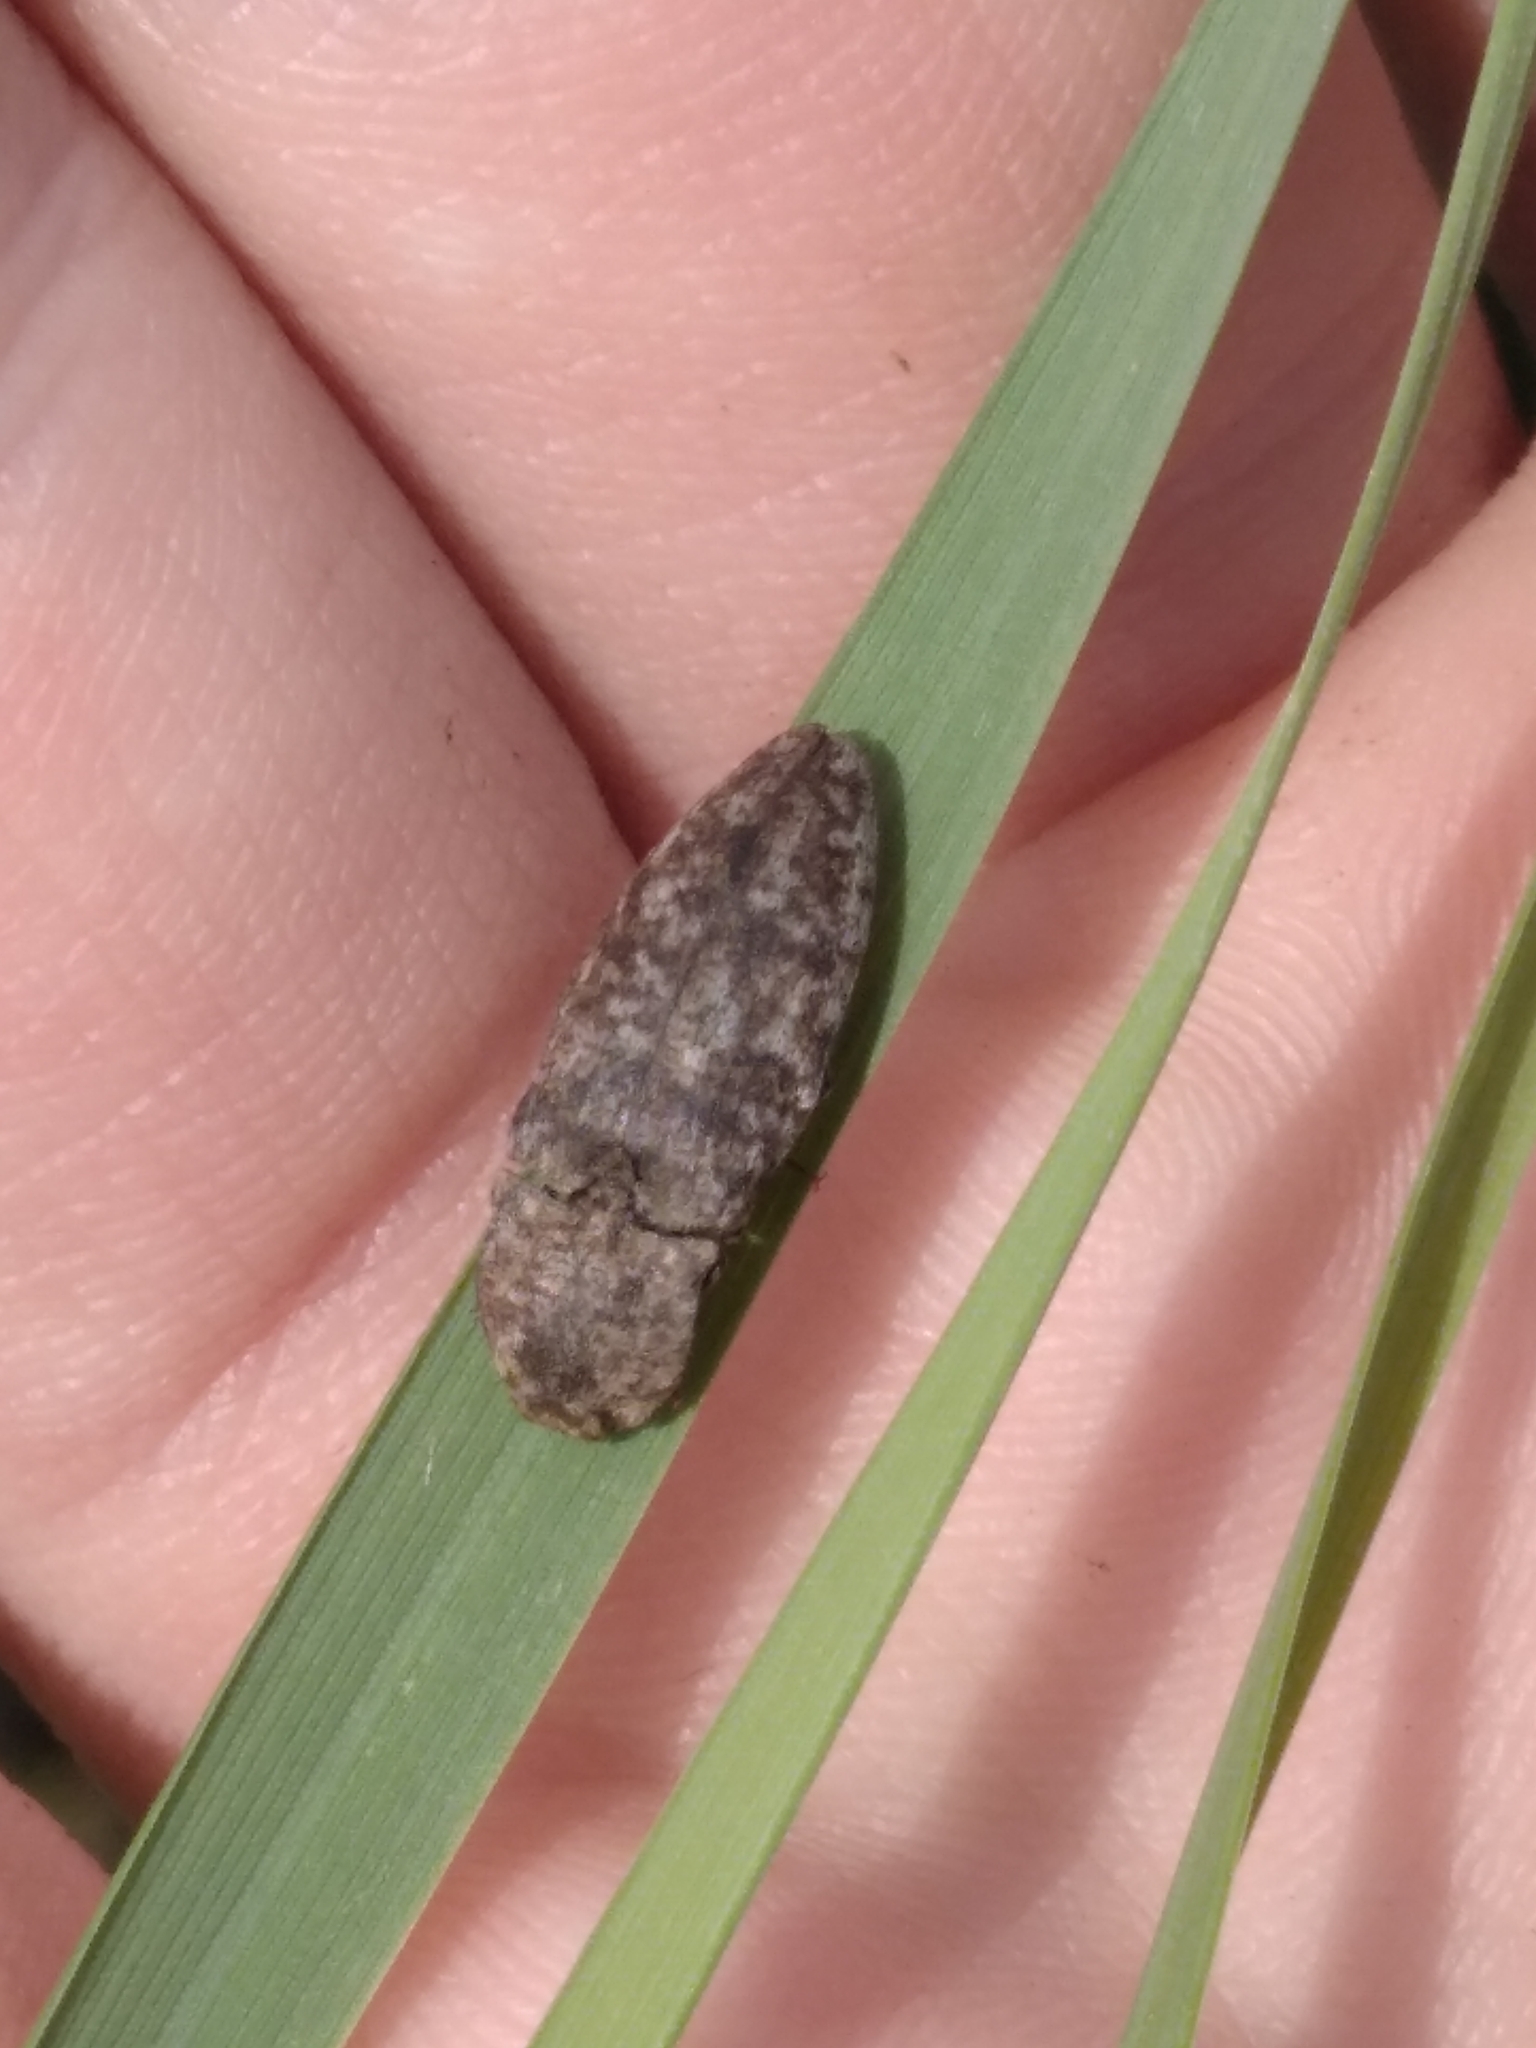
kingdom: Animalia
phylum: Arthropoda
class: Insecta
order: Coleoptera
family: Elateridae
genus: Agrypnus
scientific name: Agrypnus murinus
